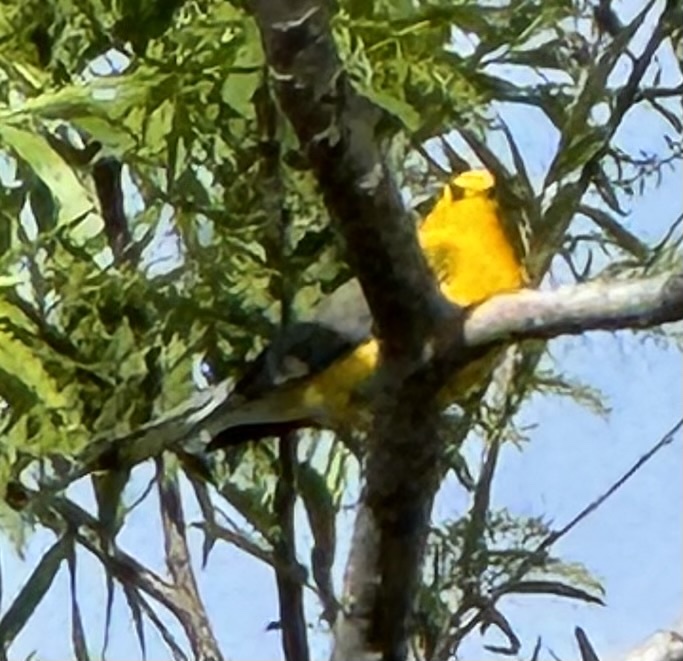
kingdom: Animalia
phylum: Chordata
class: Aves
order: Passeriformes
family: Parulidae
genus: Protonotaria
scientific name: Protonotaria citrea
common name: Prothonotary warbler
